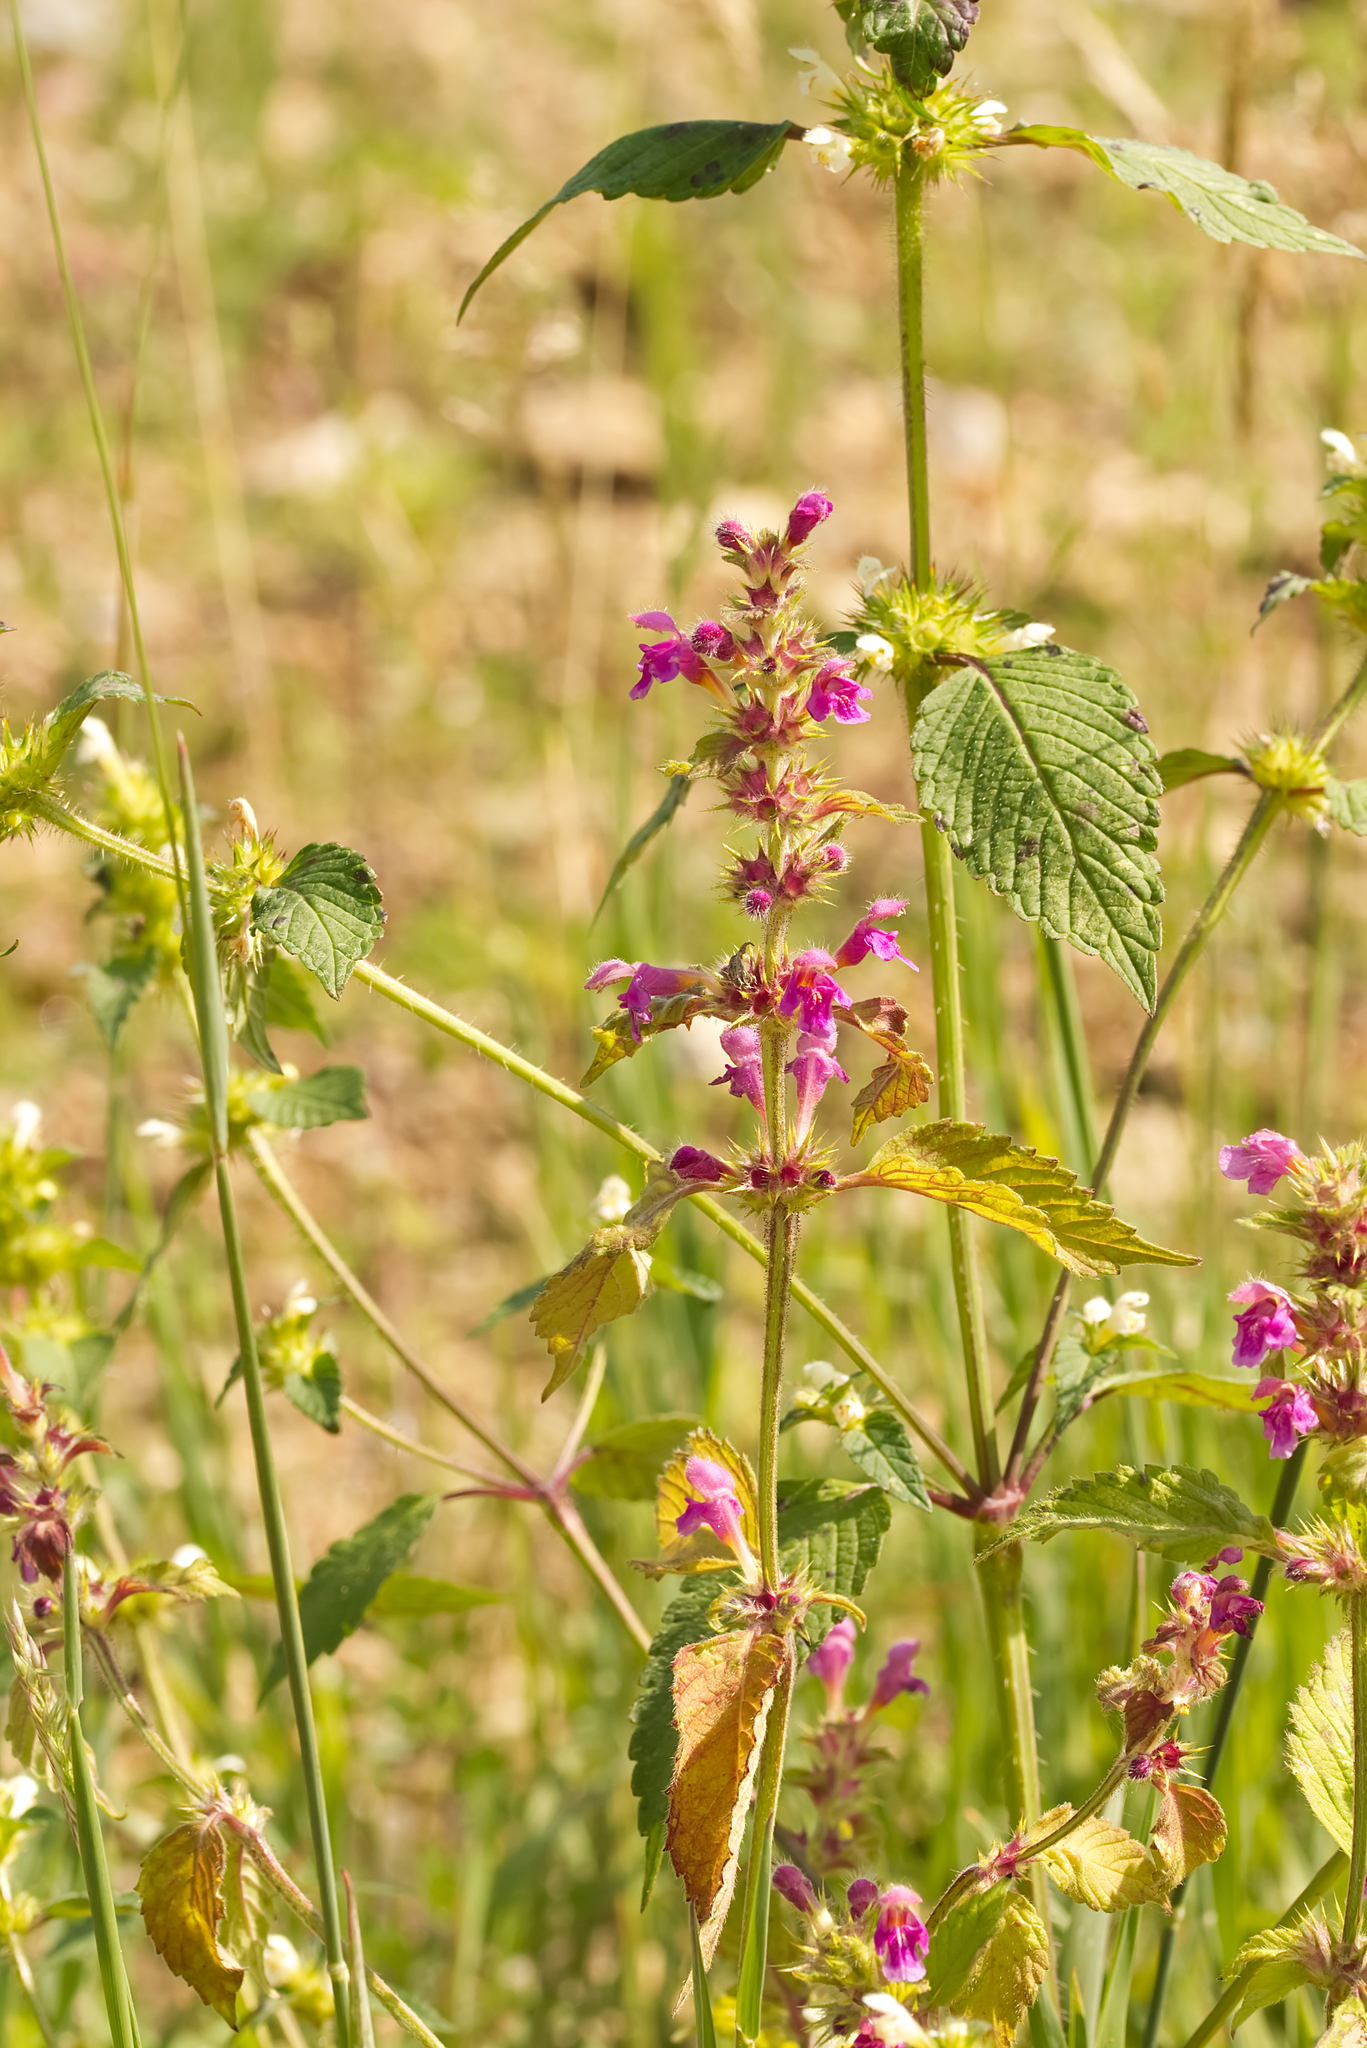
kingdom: Plantae
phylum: Tracheophyta
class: Magnoliopsida
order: Lamiales
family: Lamiaceae
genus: Galeopsis
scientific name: Galeopsis pubescens
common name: Downy hemp-nettle
